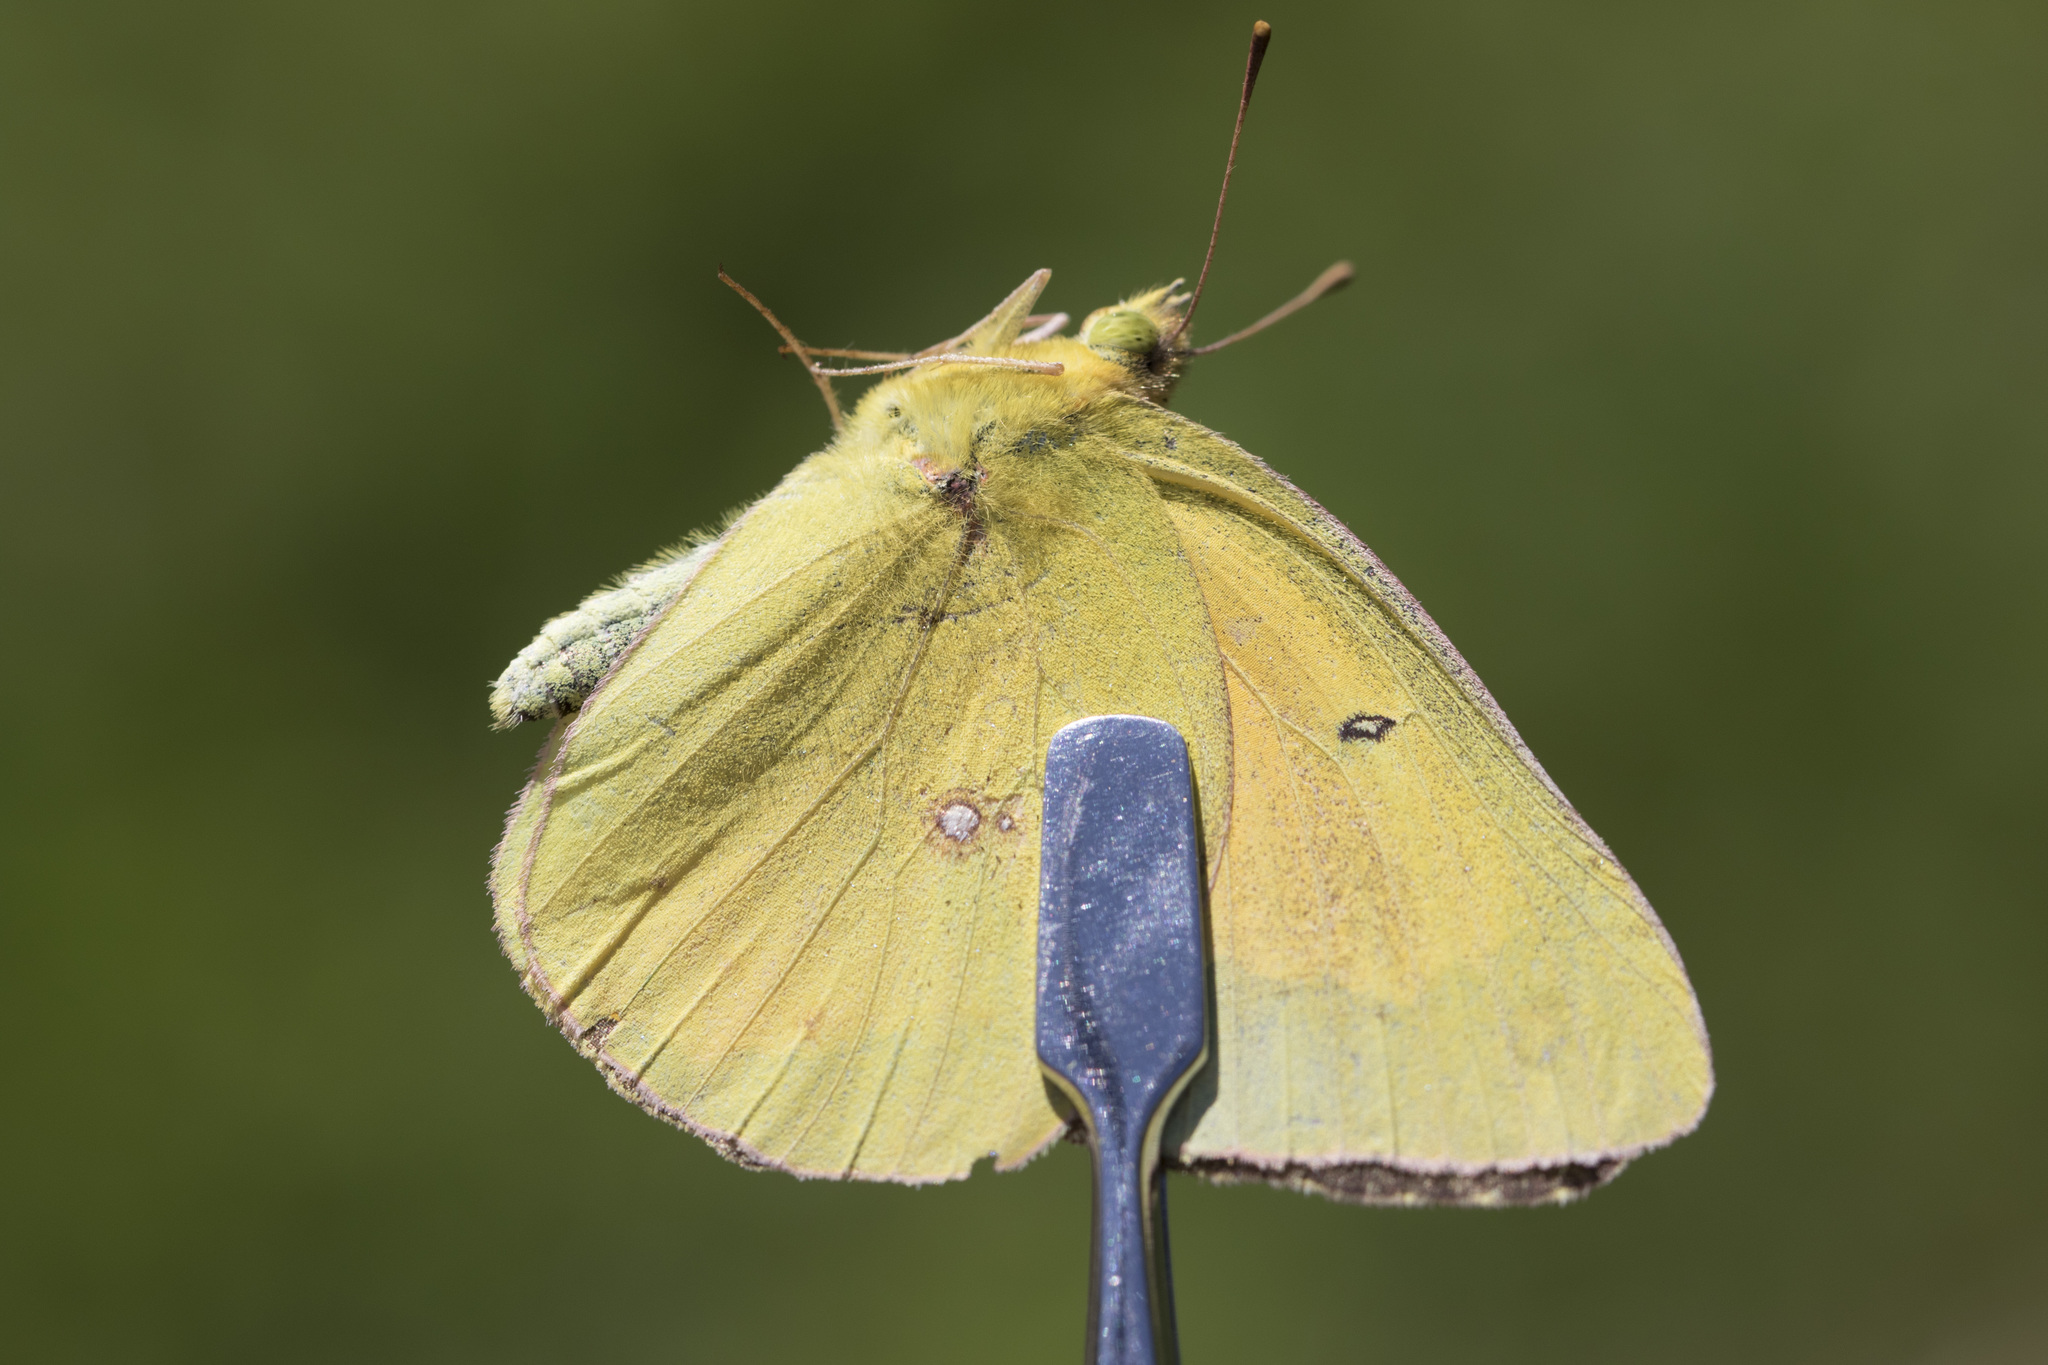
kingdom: Animalia
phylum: Arthropoda
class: Insecta
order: Lepidoptera
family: Pieridae
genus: Colias
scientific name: Colias eurytheme
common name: Alfalfa butterfly
